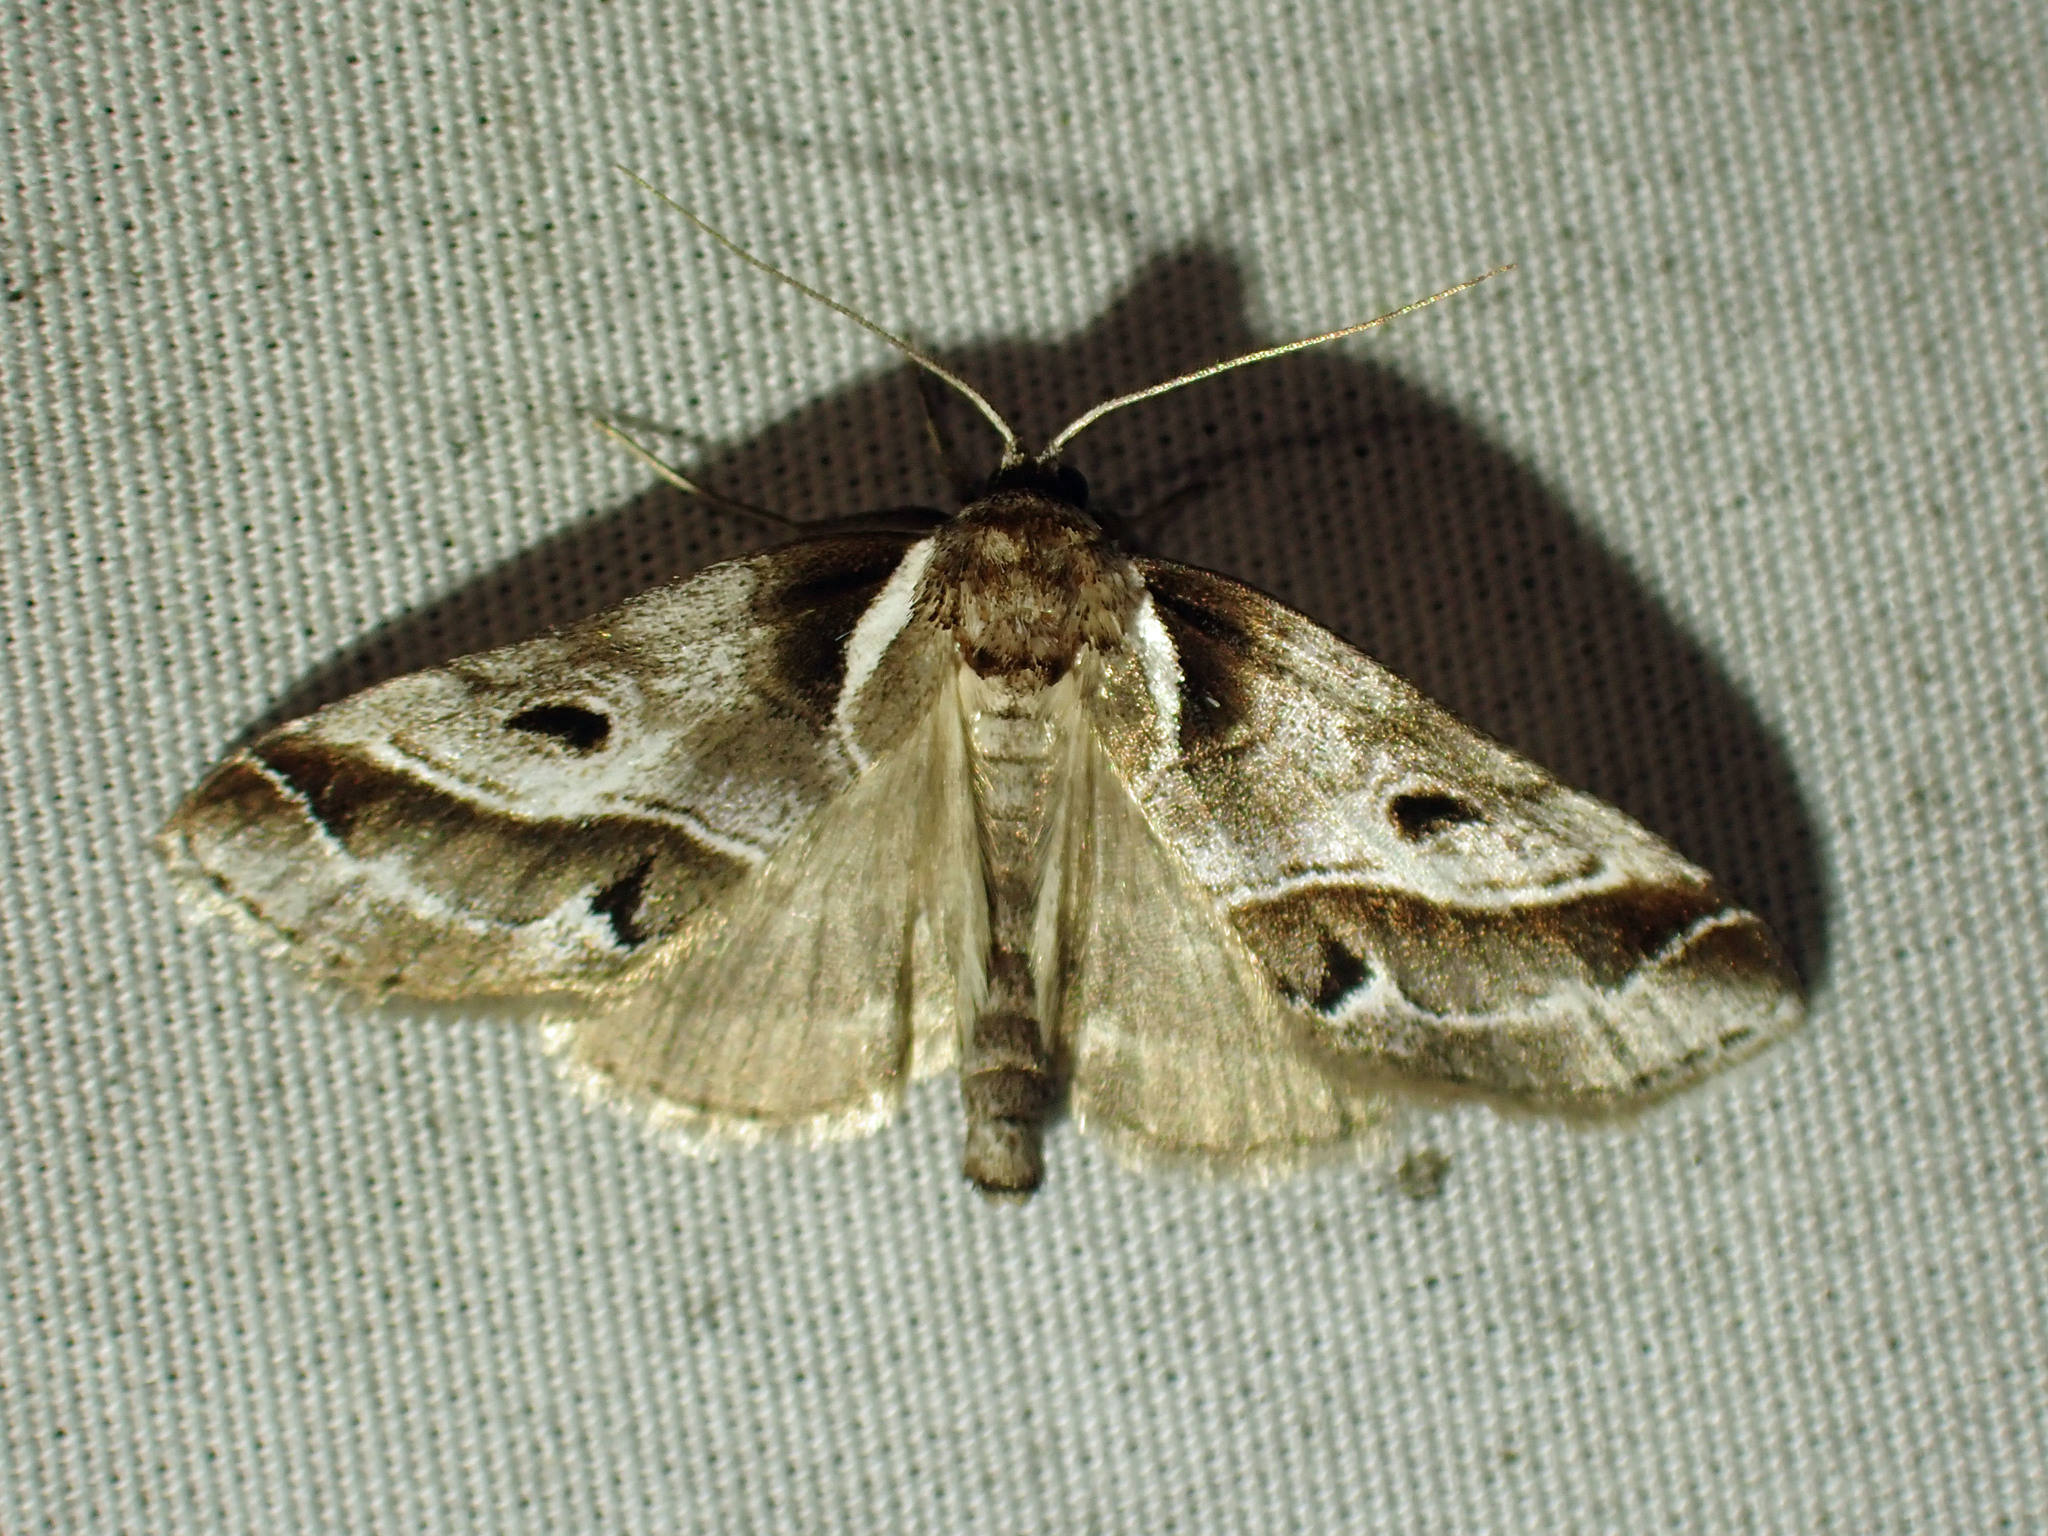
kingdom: Animalia
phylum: Arthropoda
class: Insecta
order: Lepidoptera
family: Nolidae
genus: Baileya
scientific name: Baileya doubledayi
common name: Doubleday's baileya moth
